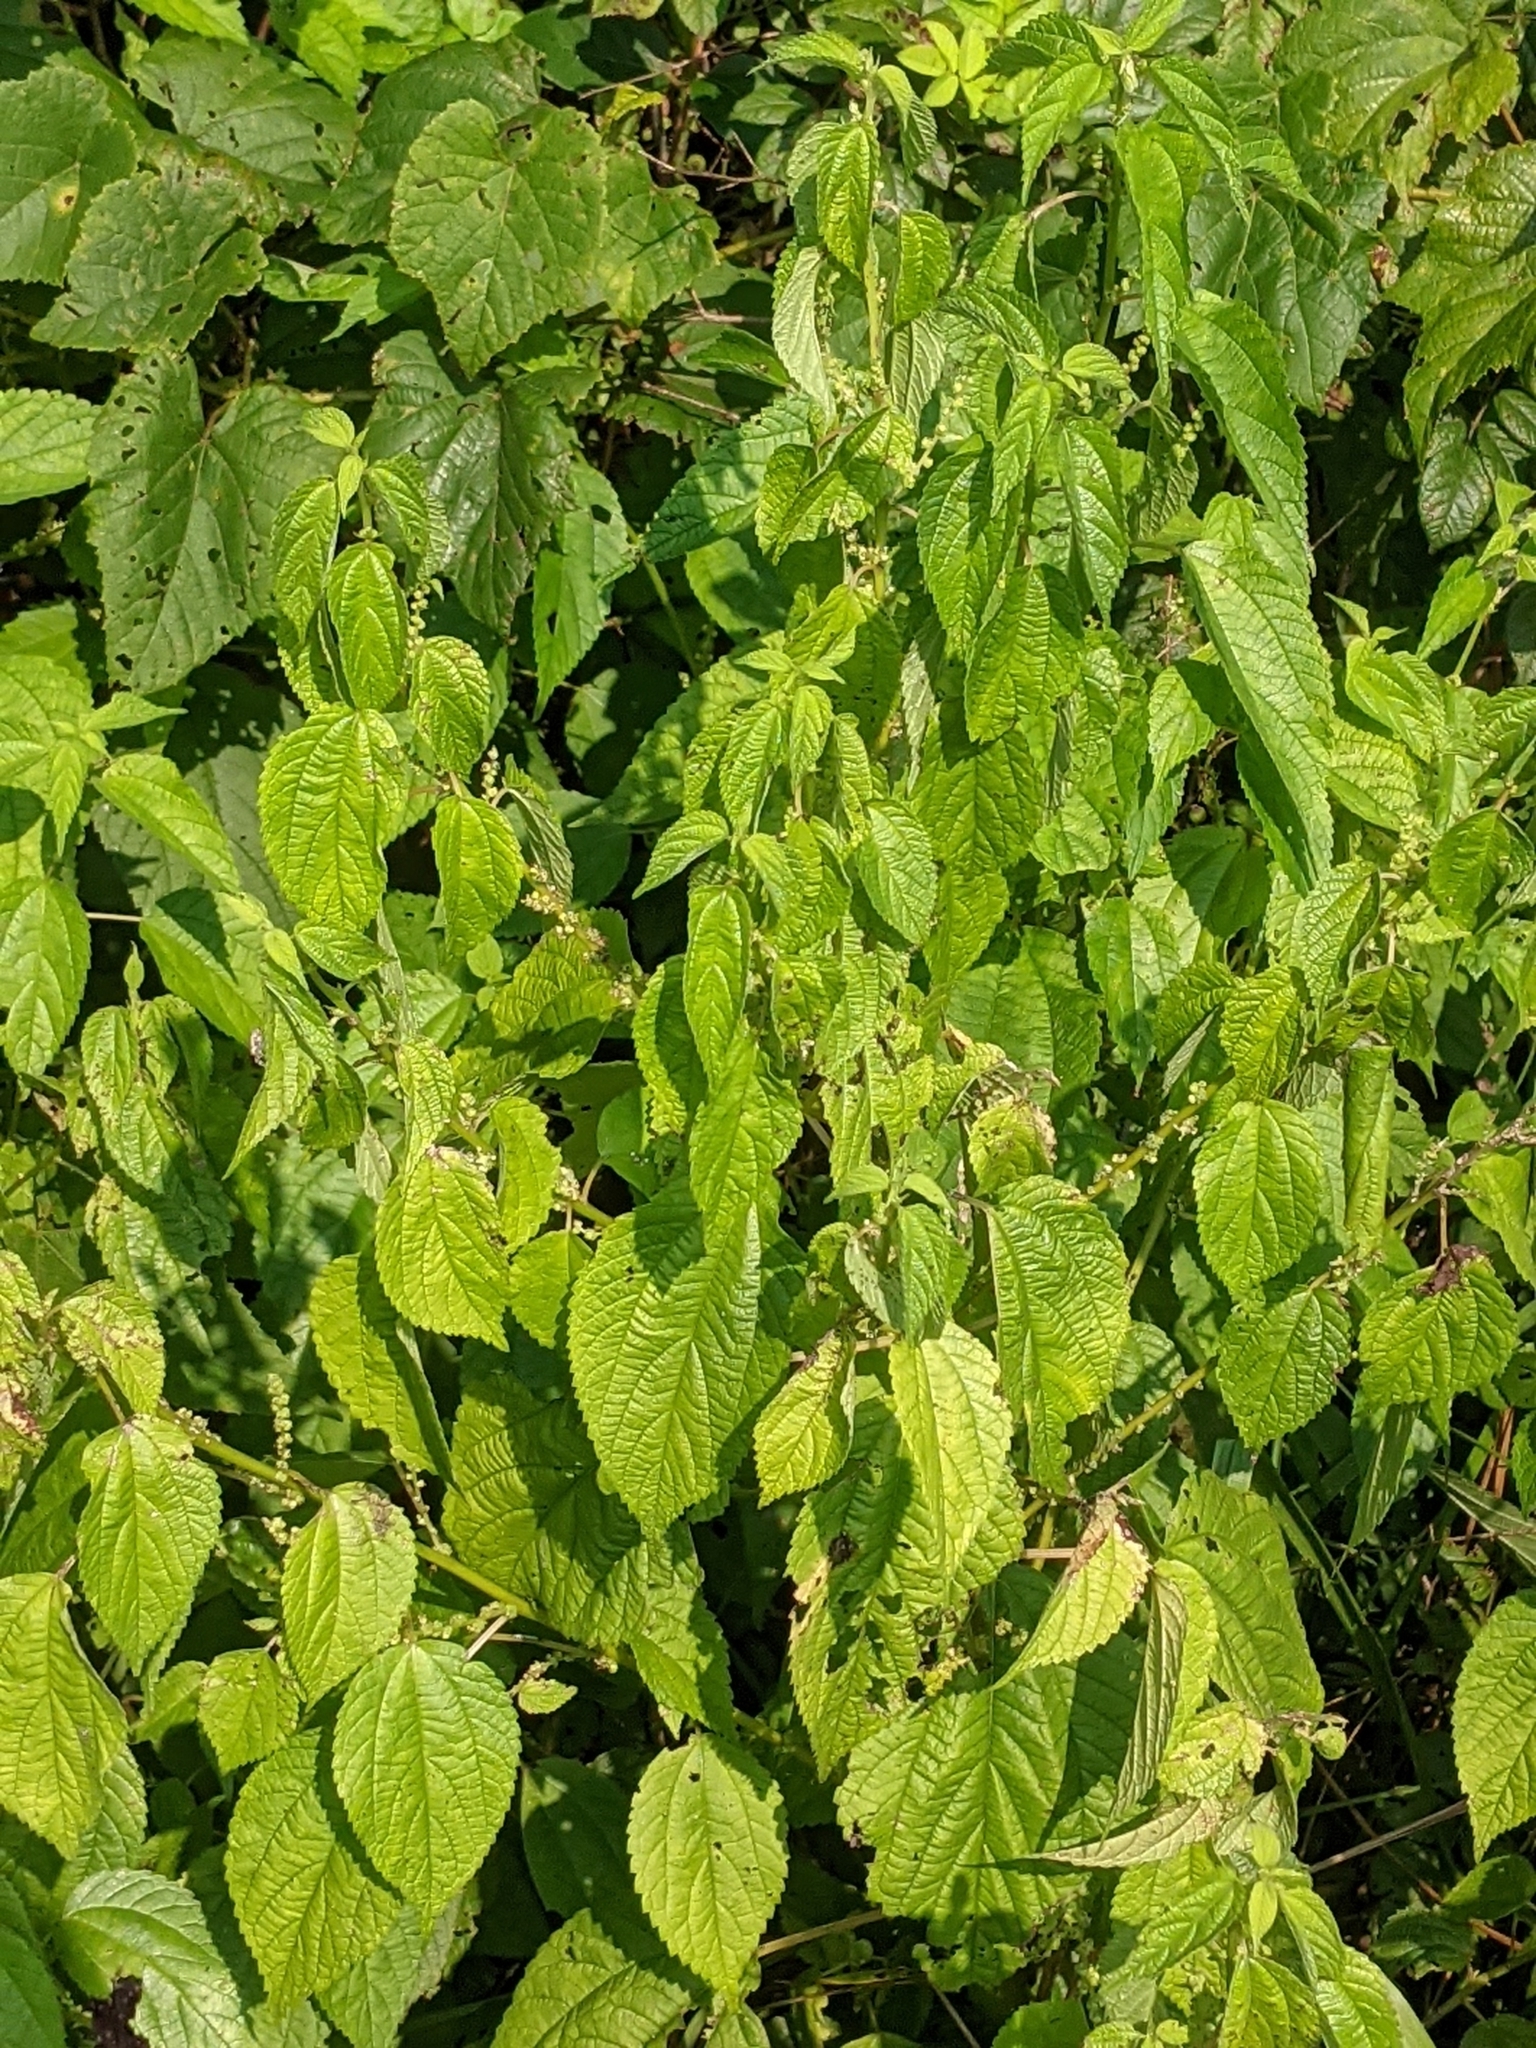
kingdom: Plantae
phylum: Tracheophyta
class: Magnoliopsida
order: Rosales
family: Urticaceae
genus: Boehmeria
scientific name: Boehmeria cylindrica
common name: Bog-hemp
